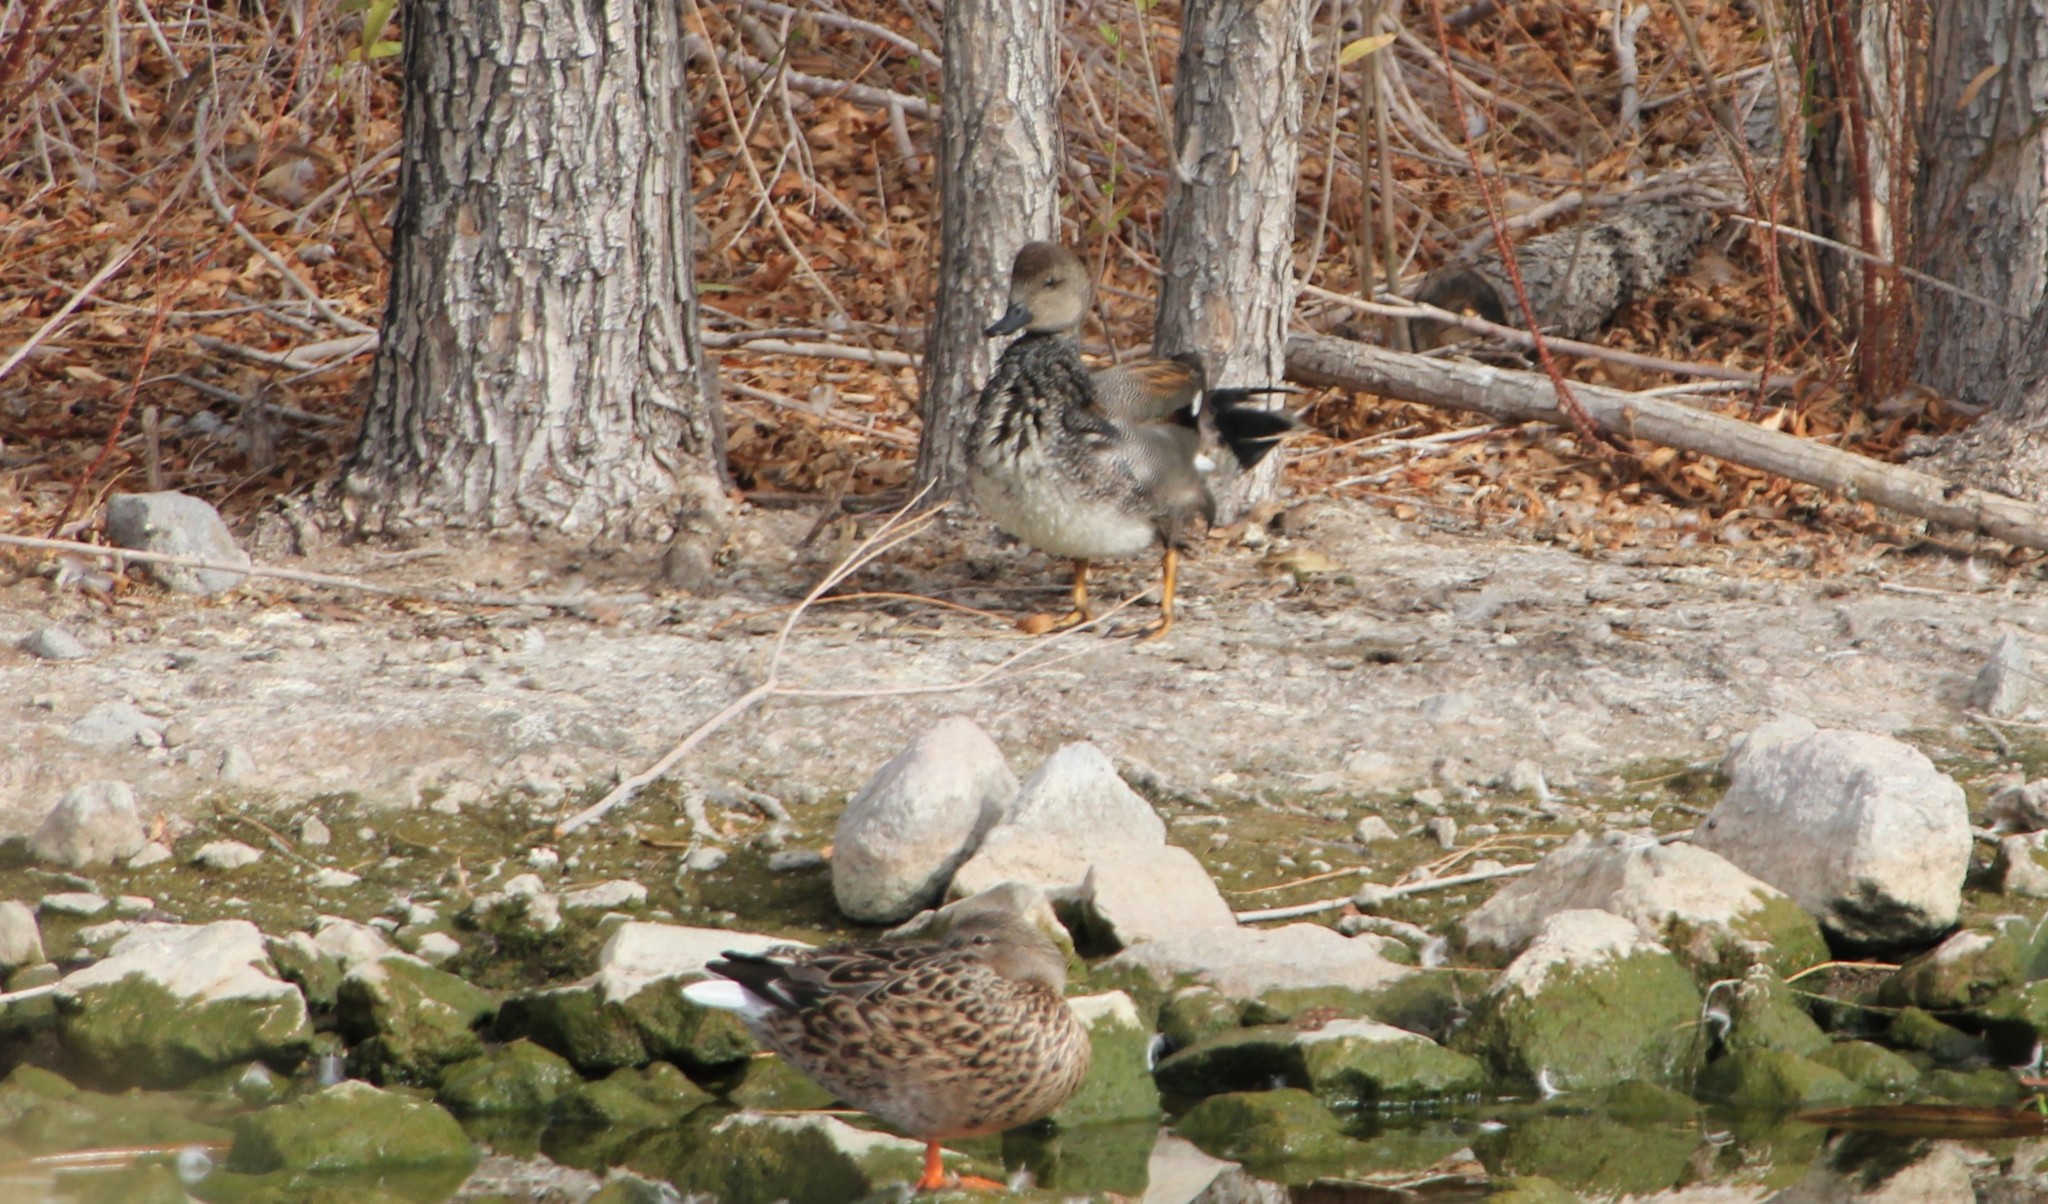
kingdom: Animalia
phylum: Chordata
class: Aves
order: Anseriformes
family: Anatidae
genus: Mareca
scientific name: Mareca strepera
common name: Gadwall
